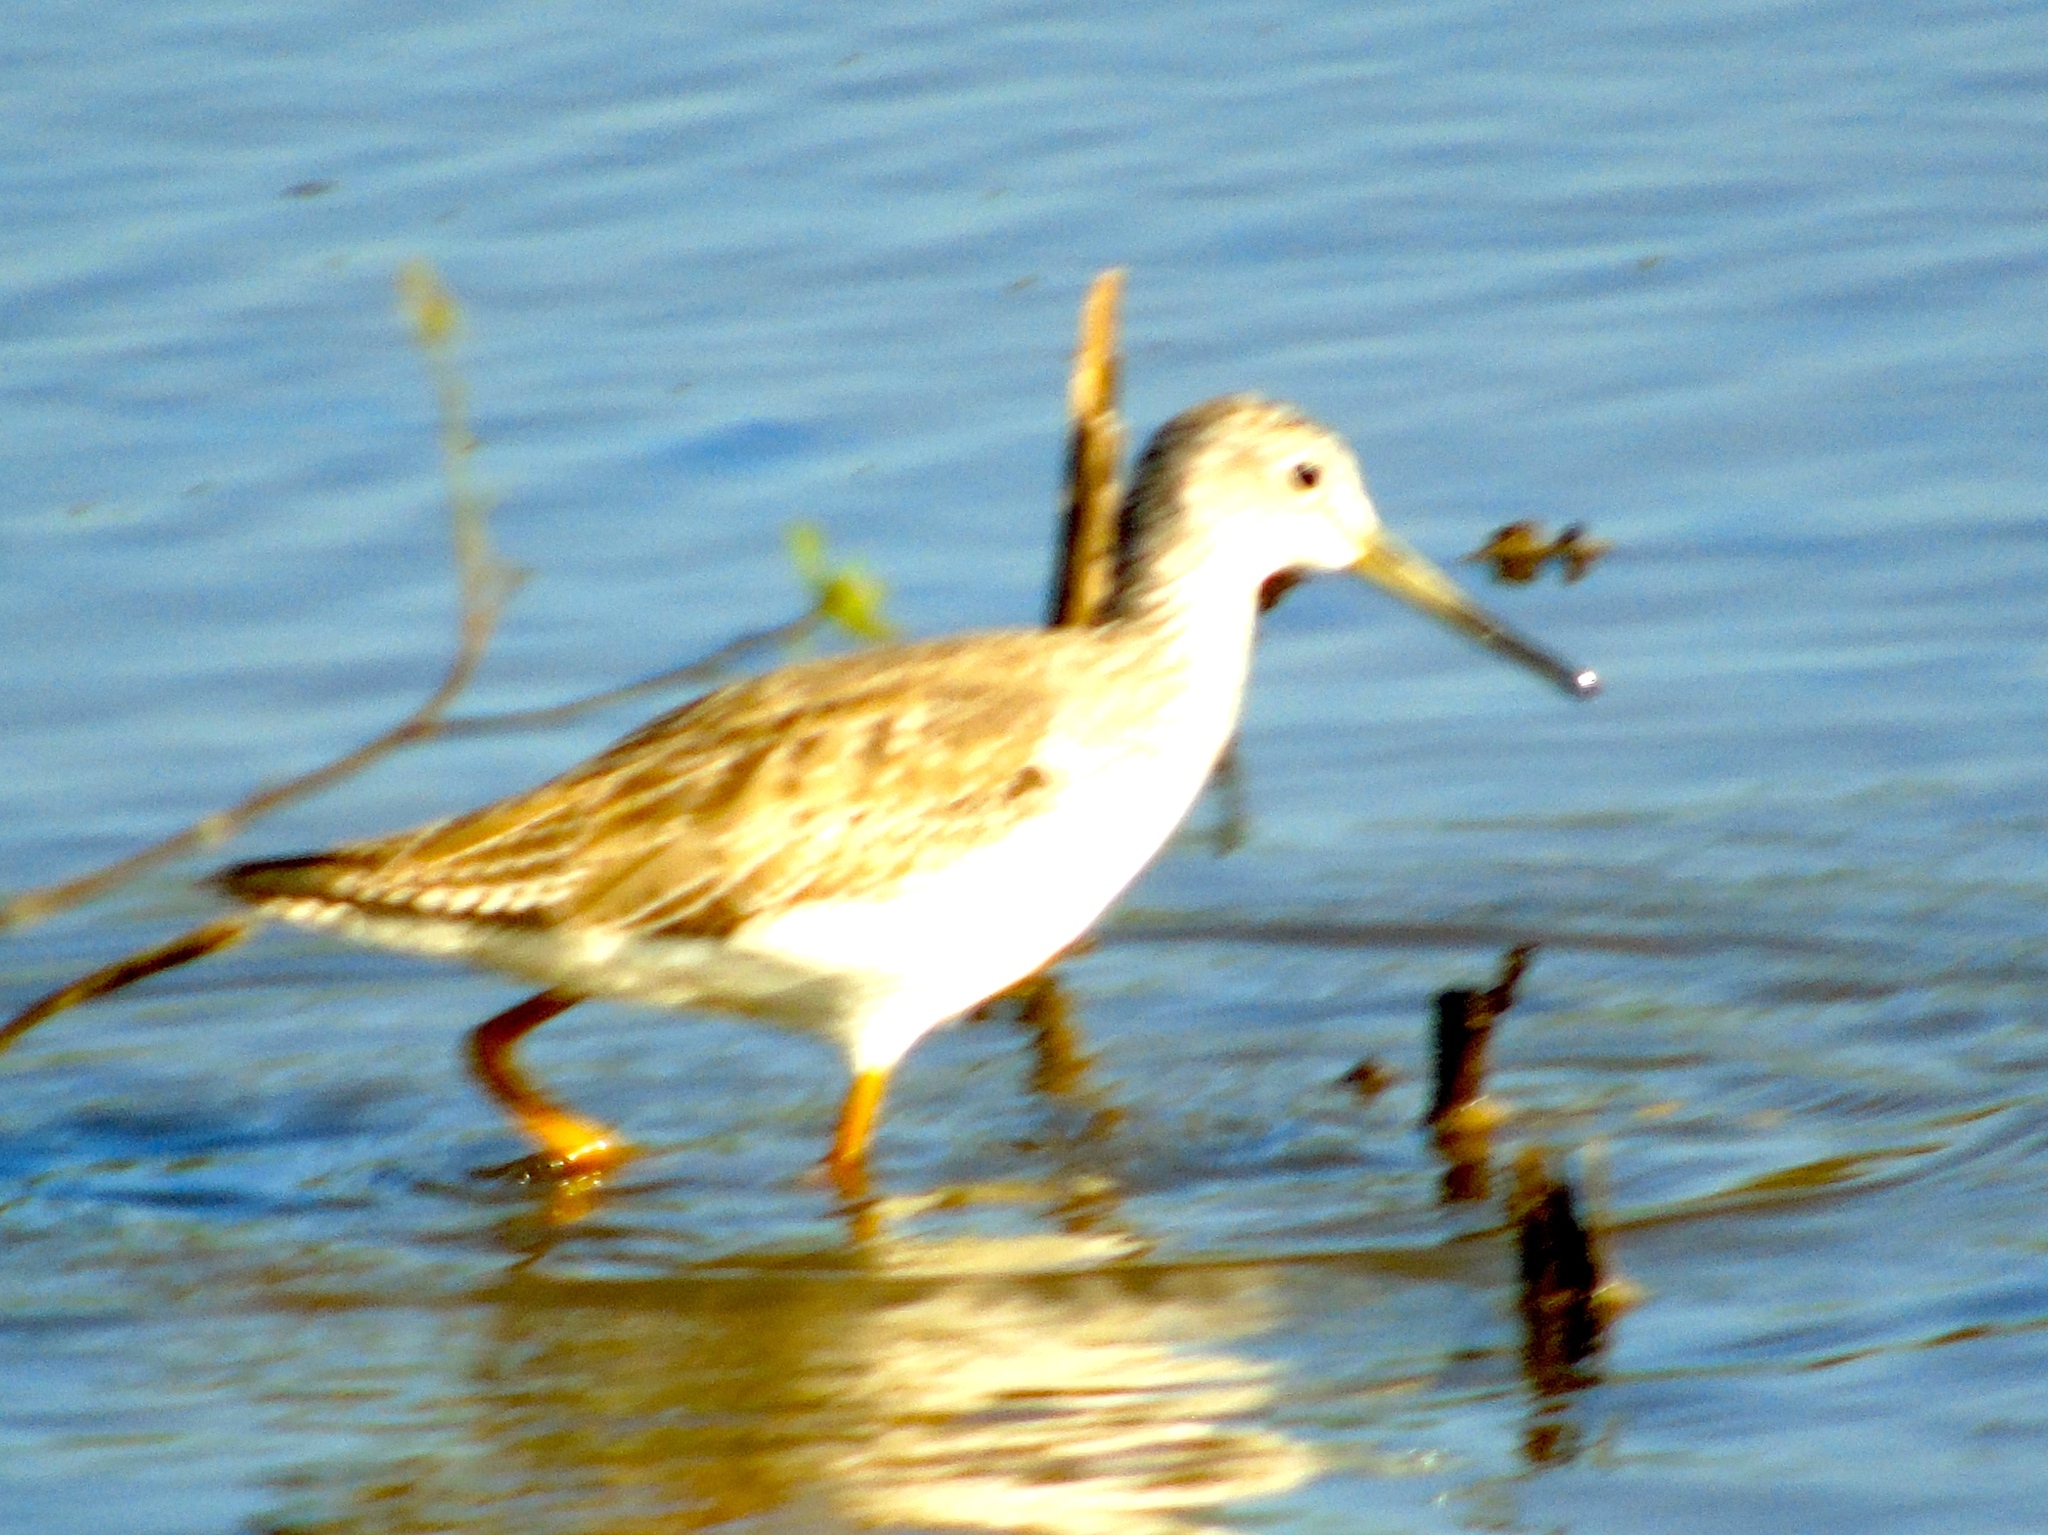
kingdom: Animalia
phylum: Chordata
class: Aves
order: Charadriiformes
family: Scolopacidae
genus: Tringa
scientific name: Tringa melanoleuca
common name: Greater yellowlegs
